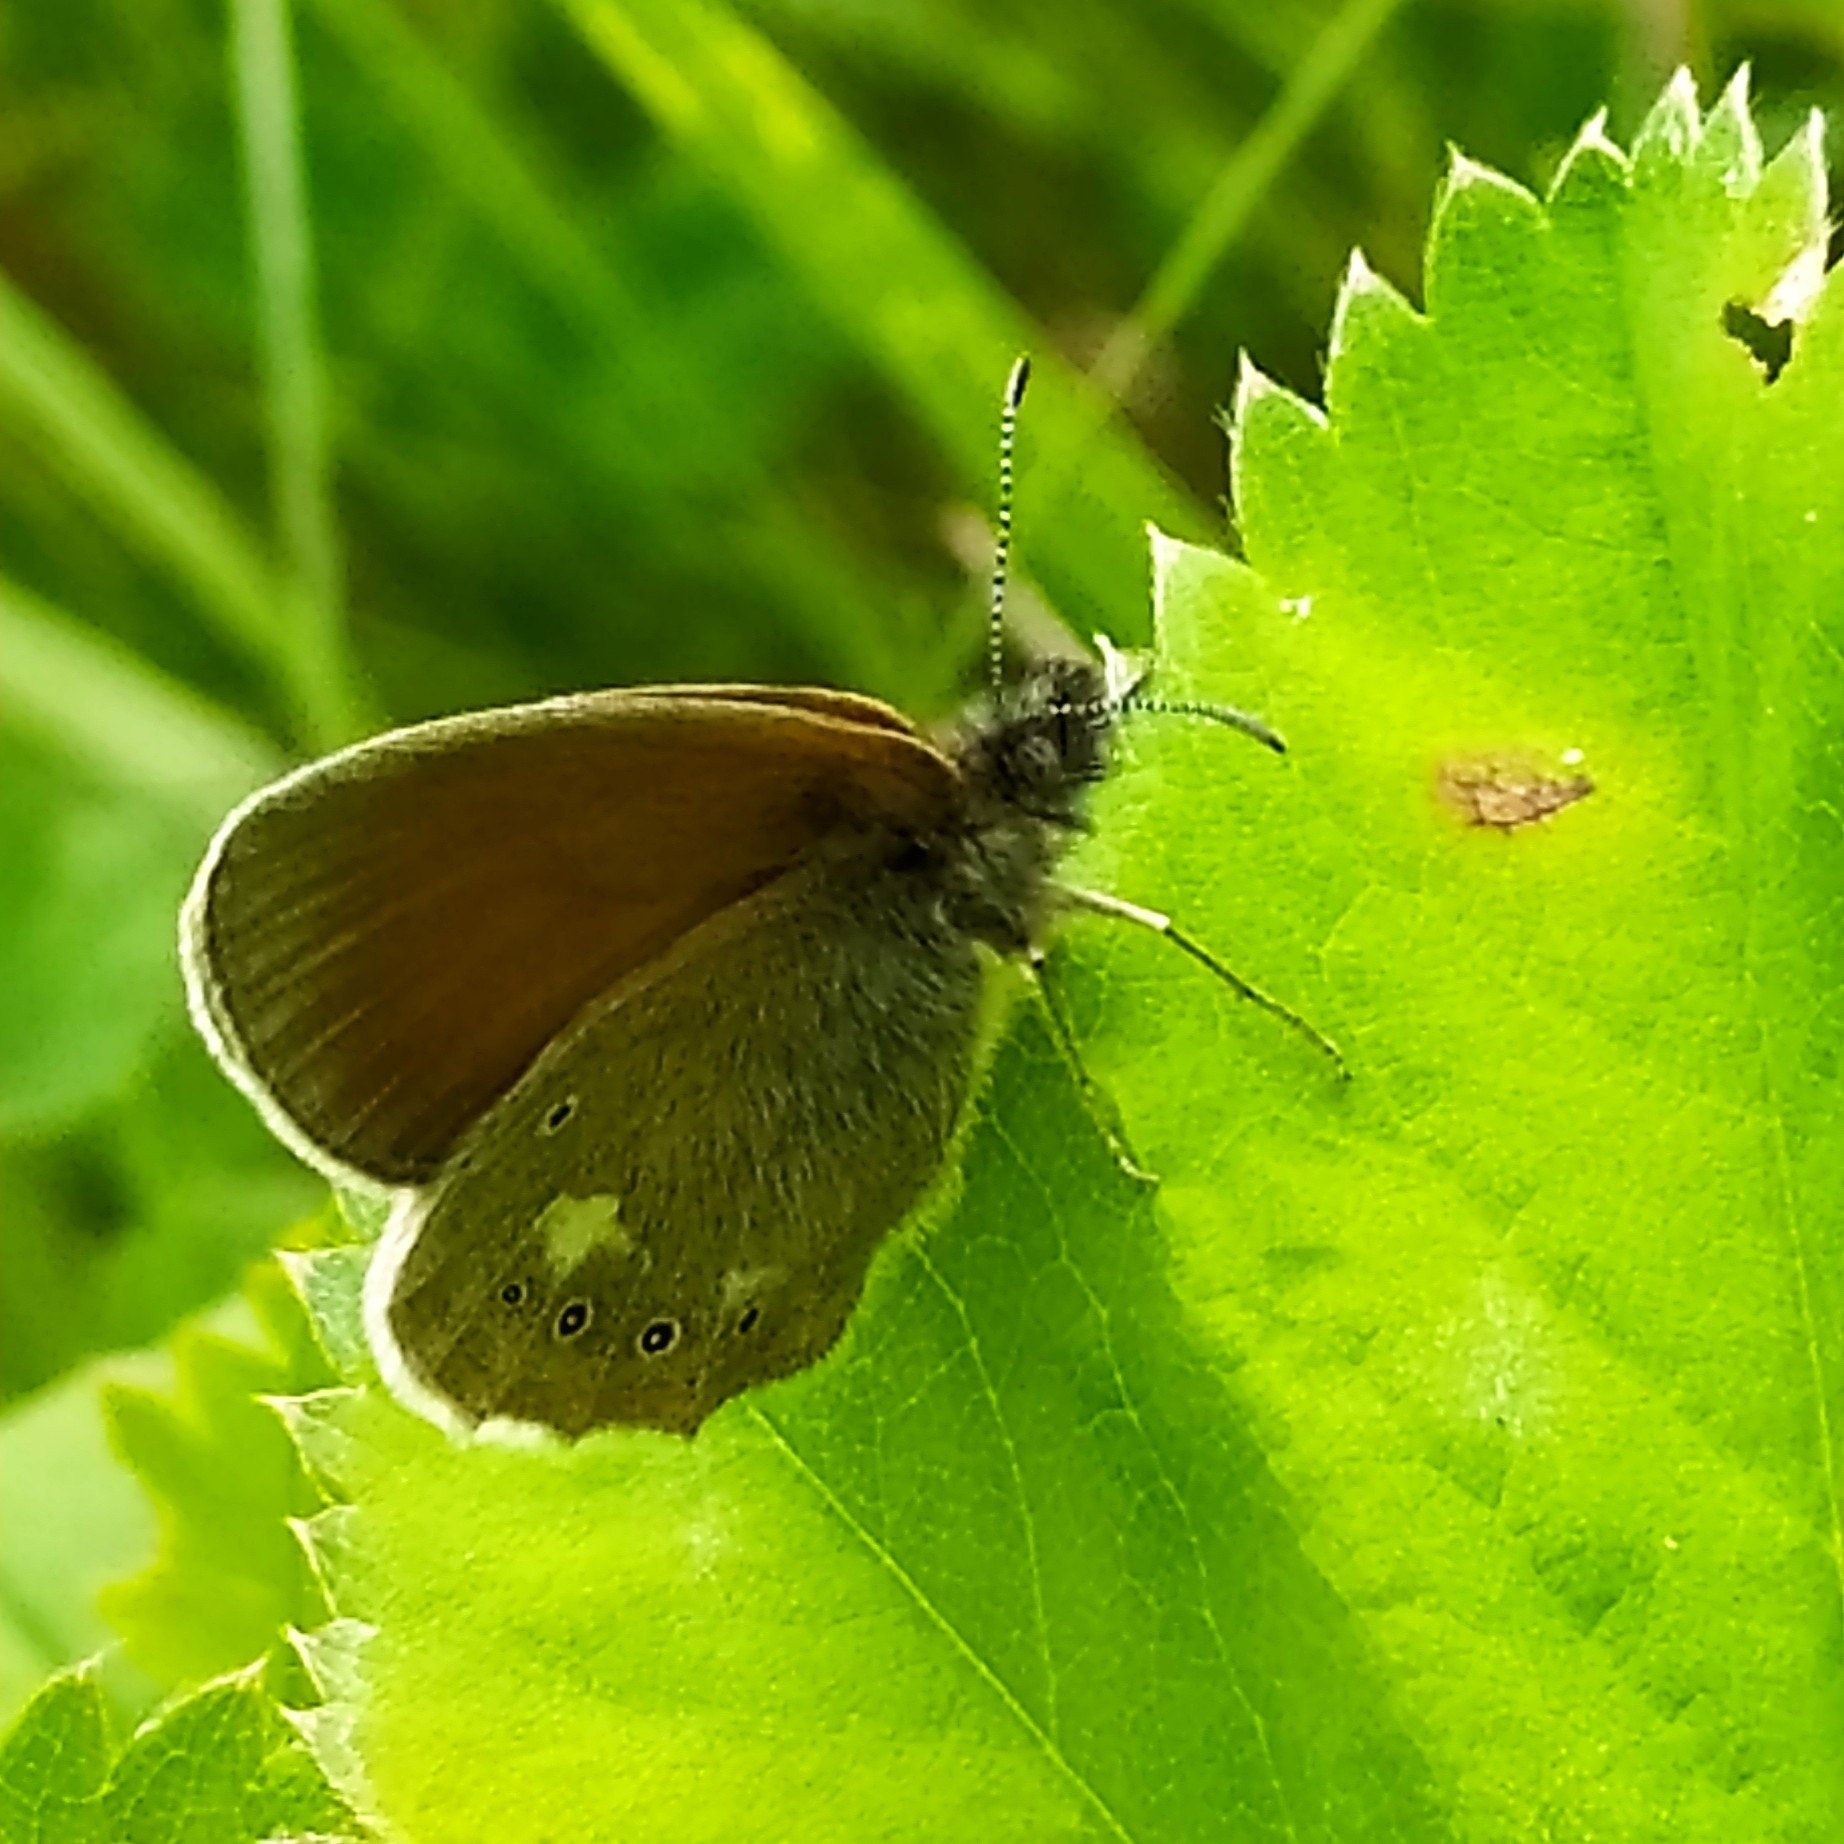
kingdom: Animalia
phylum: Arthropoda
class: Insecta
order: Lepidoptera
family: Nymphalidae
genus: Coenonympha
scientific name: Coenonympha iphis
